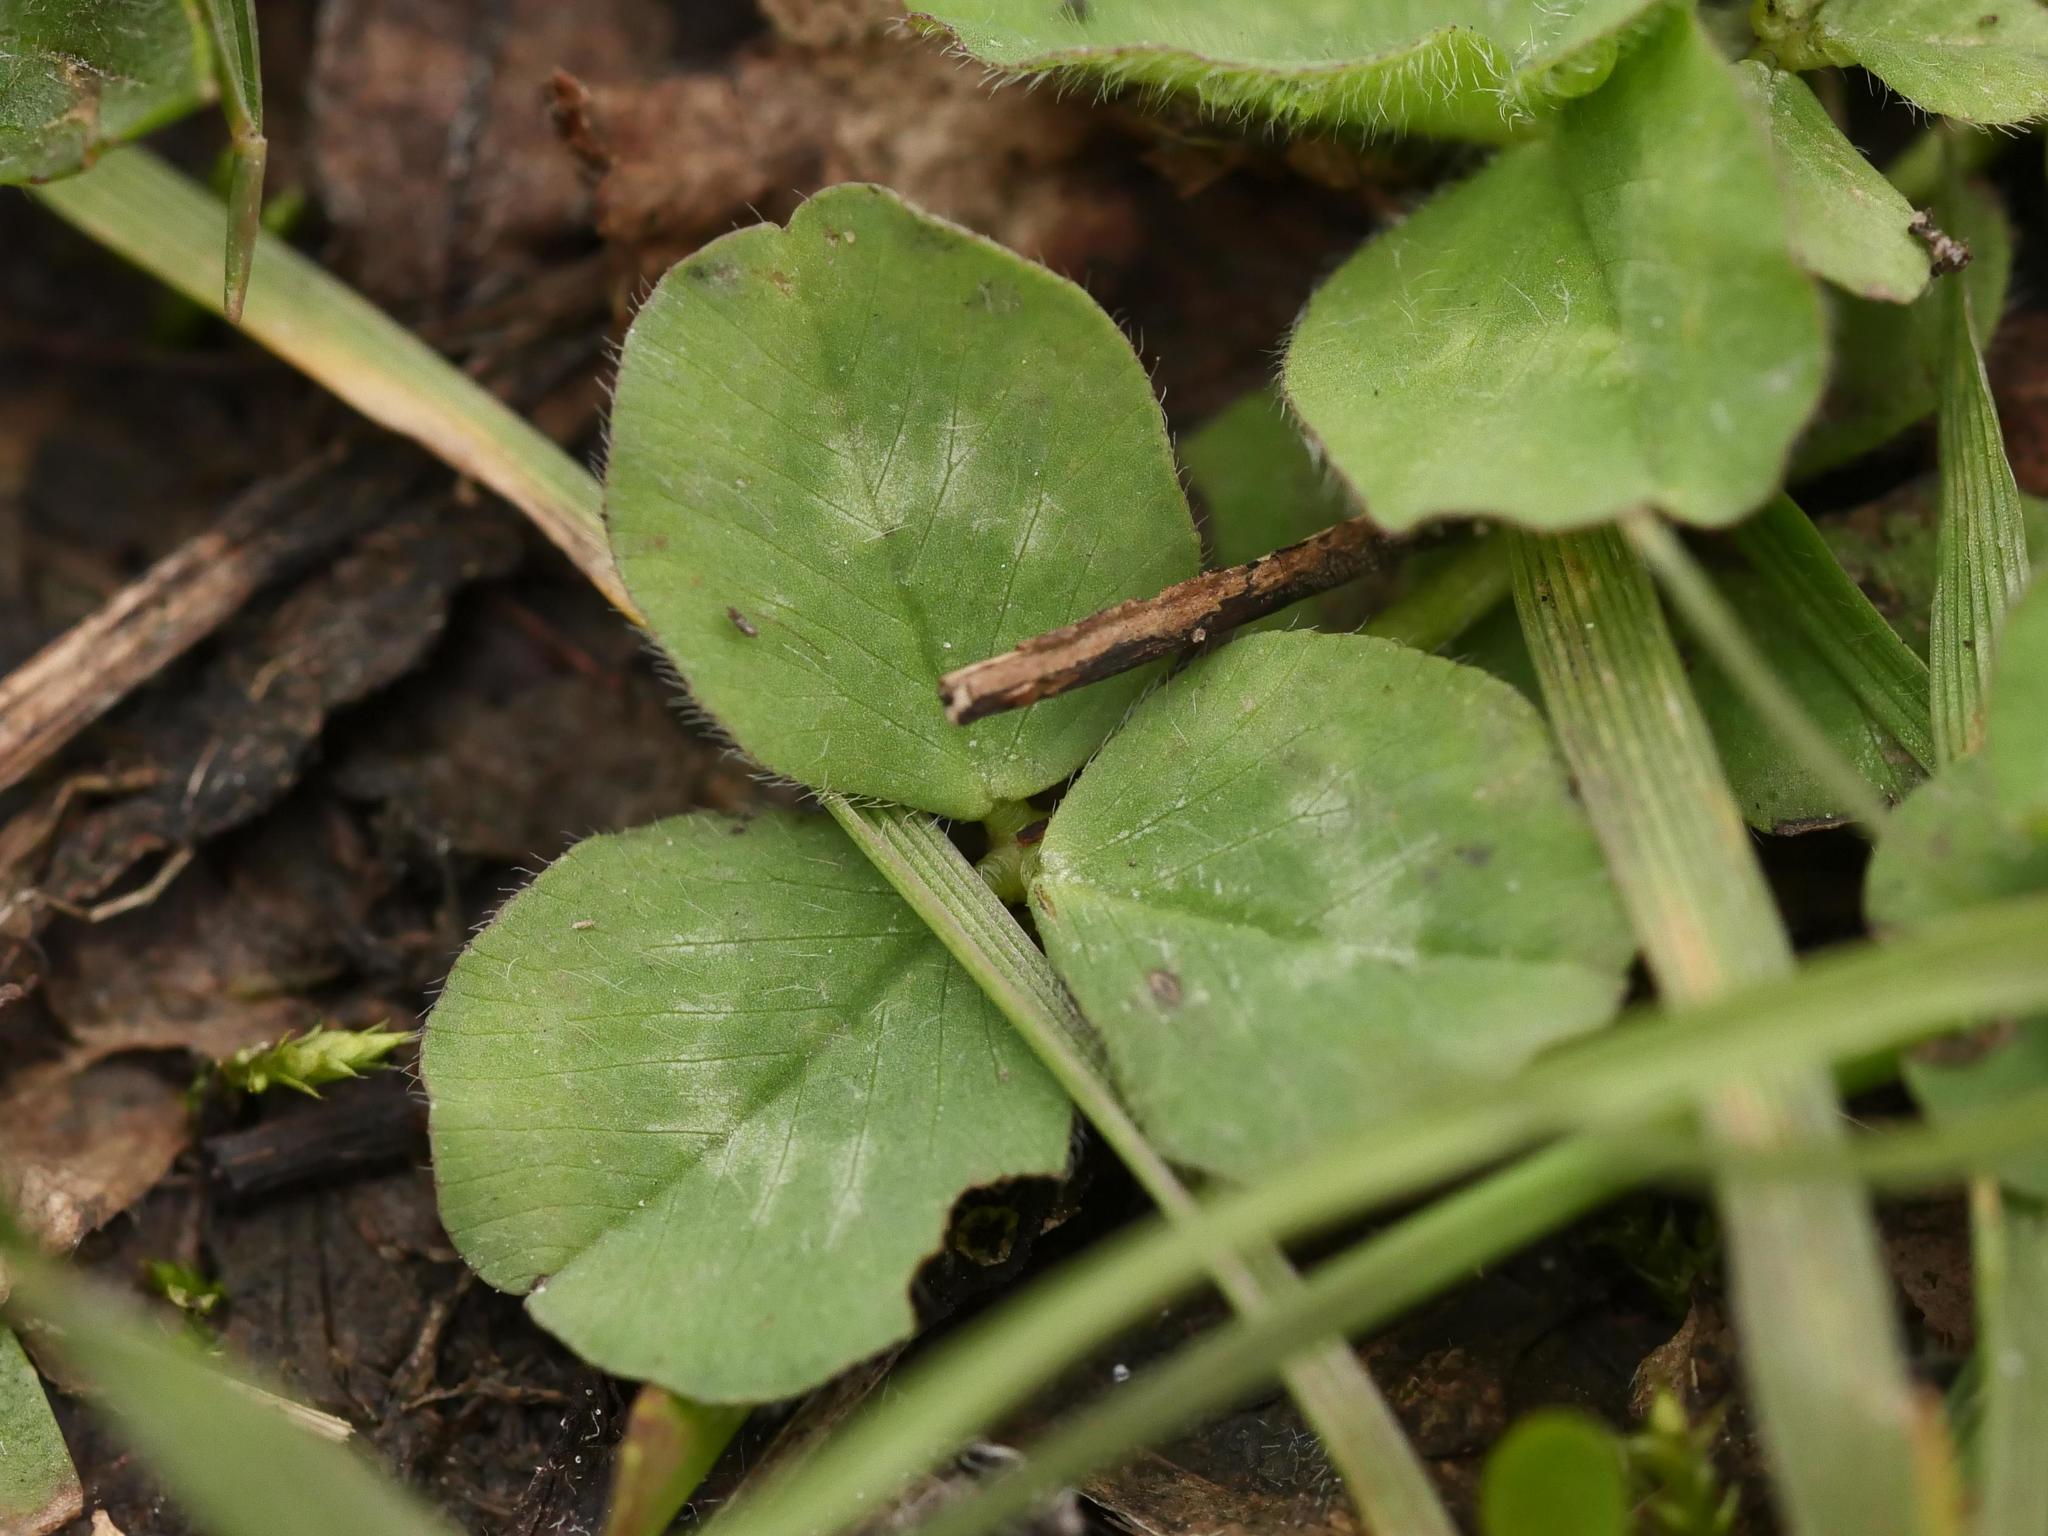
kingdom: Plantae
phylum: Tracheophyta
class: Magnoliopsida
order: Fabales
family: Fabaceae
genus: Trifolium
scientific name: Trifolium pratense
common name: Red clover
